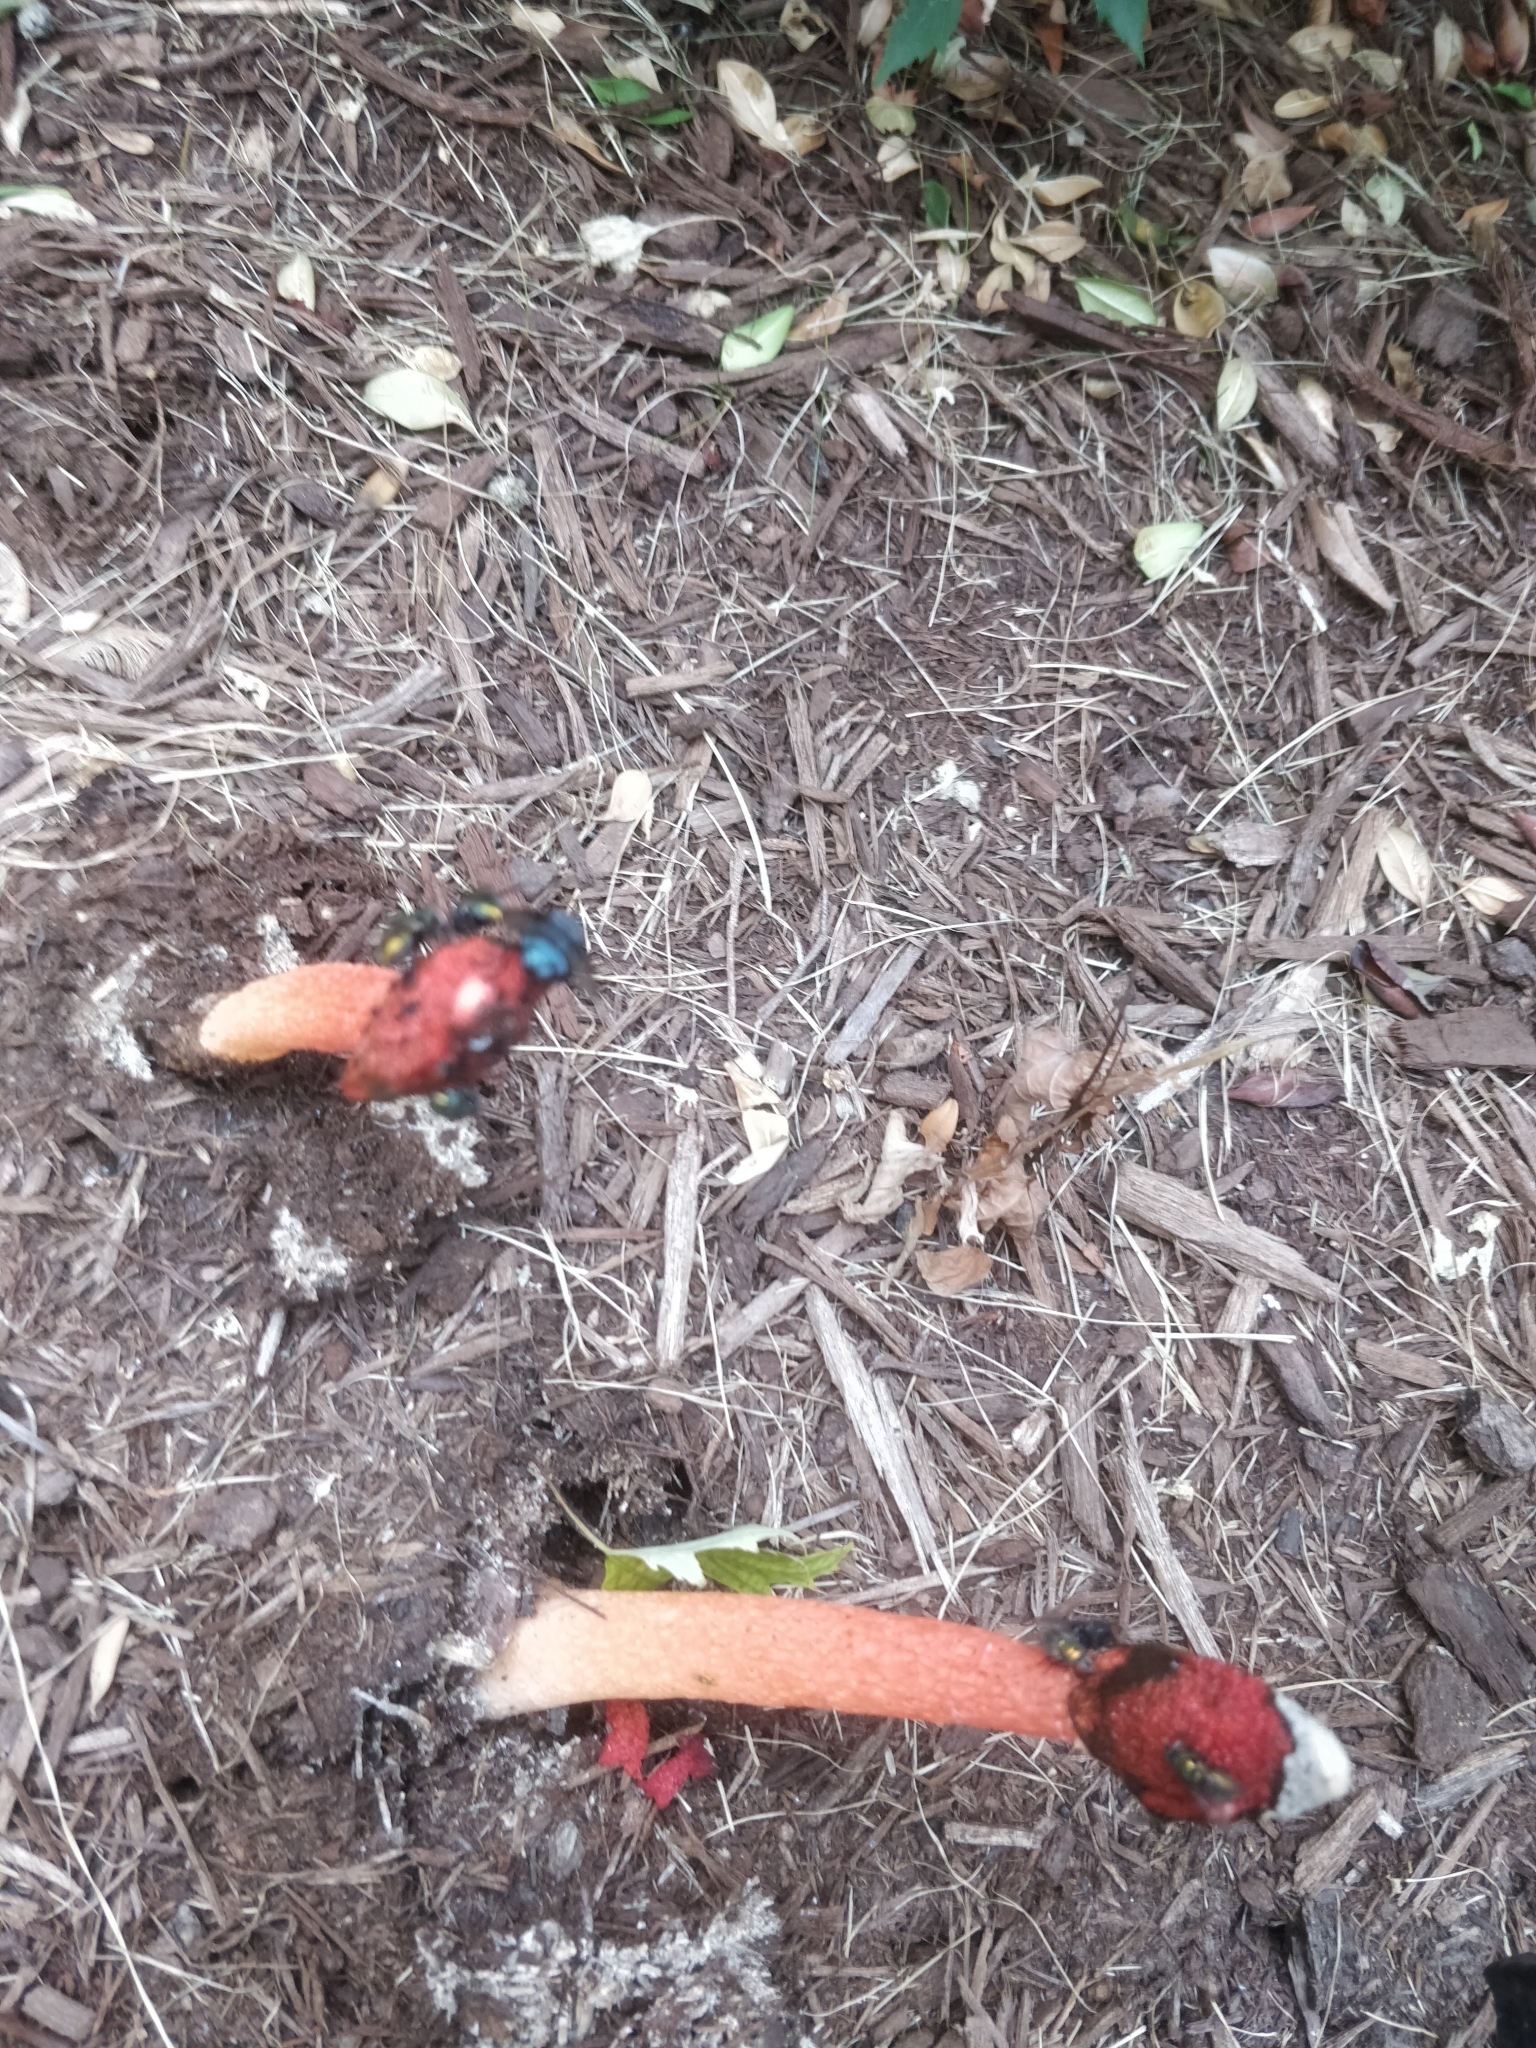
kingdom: Fungi
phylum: Basidiomycota
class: Agaricomycetes
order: Phallales
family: Phallaceae
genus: Phallus
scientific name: Phallus rugulosus
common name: Wrinkly stinkhorn
